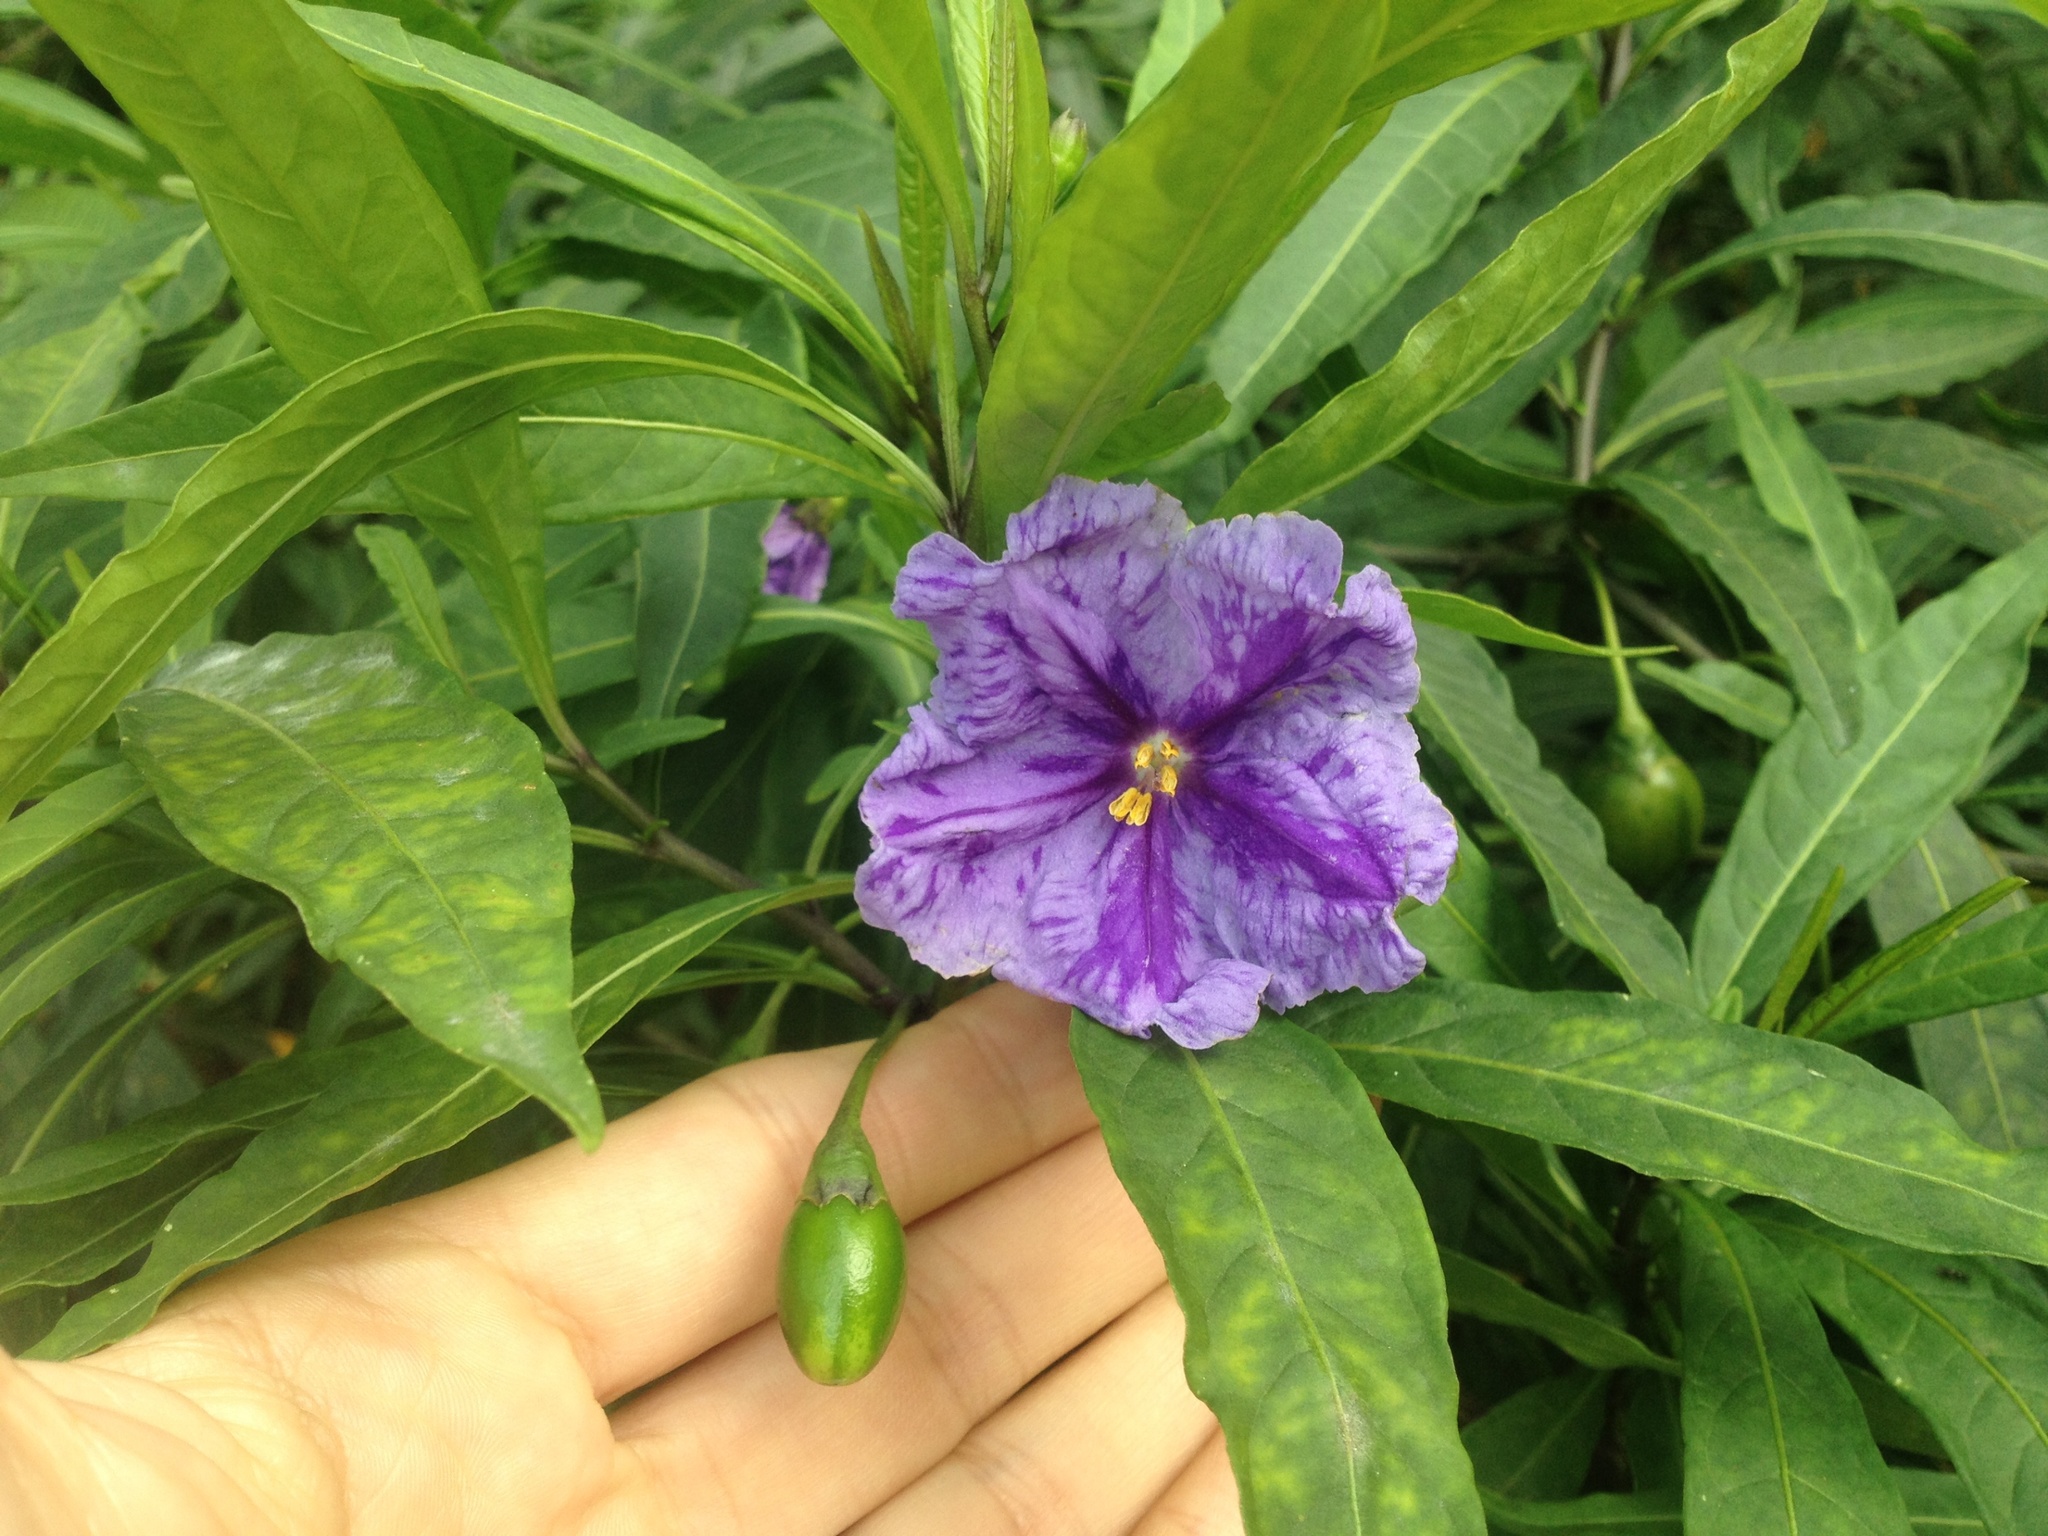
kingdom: Plantae
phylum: Tracheophyta
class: Magnoliopsida
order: Solanales
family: Solanaceae
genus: Solanum
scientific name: Solanum laciniatum
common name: Kangaroo-apple
